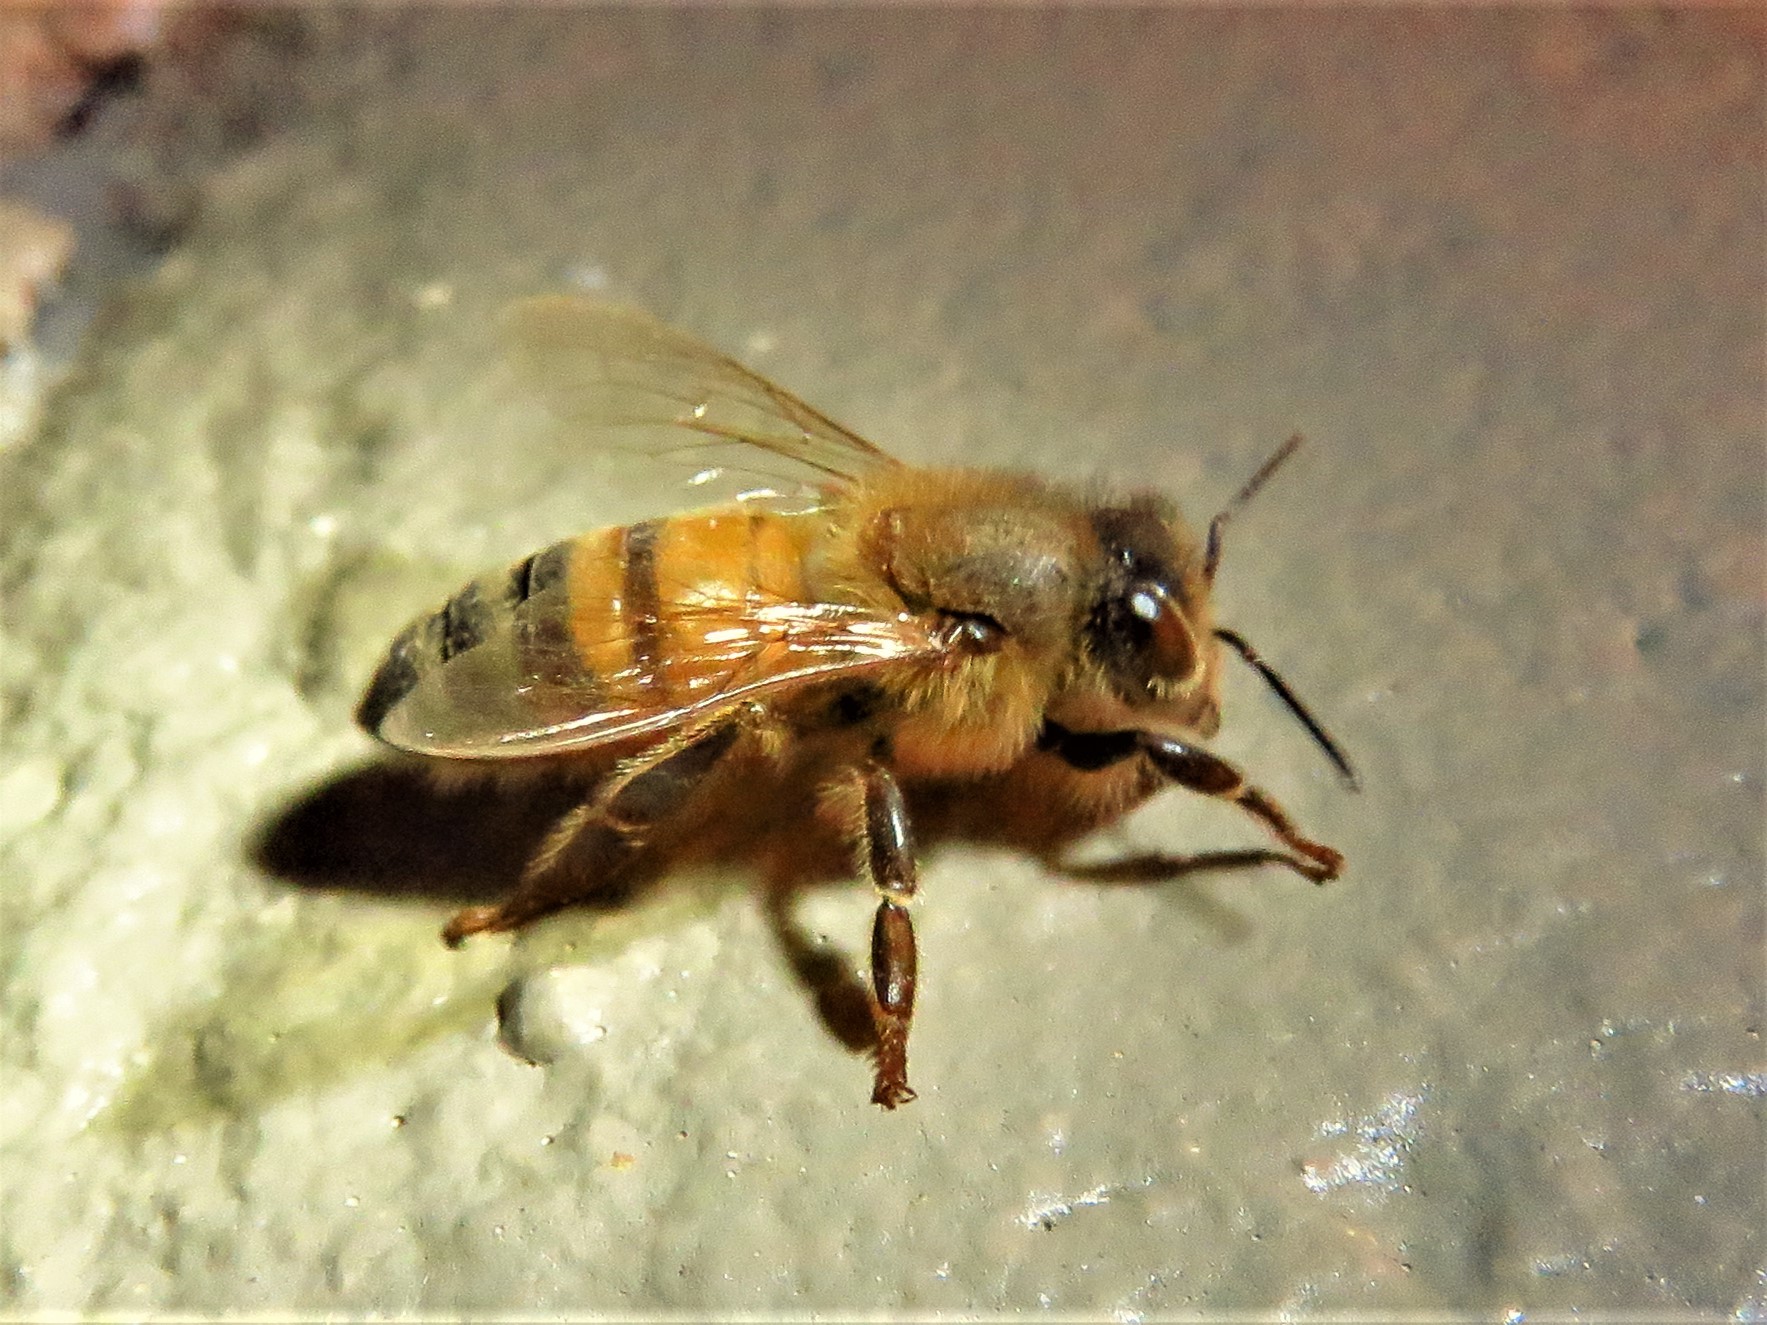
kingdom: Animalia
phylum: Arthropoda
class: Insecta
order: Hymenoptera
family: Apidae
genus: Apis
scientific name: Apis mellifera
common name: Honey bee
